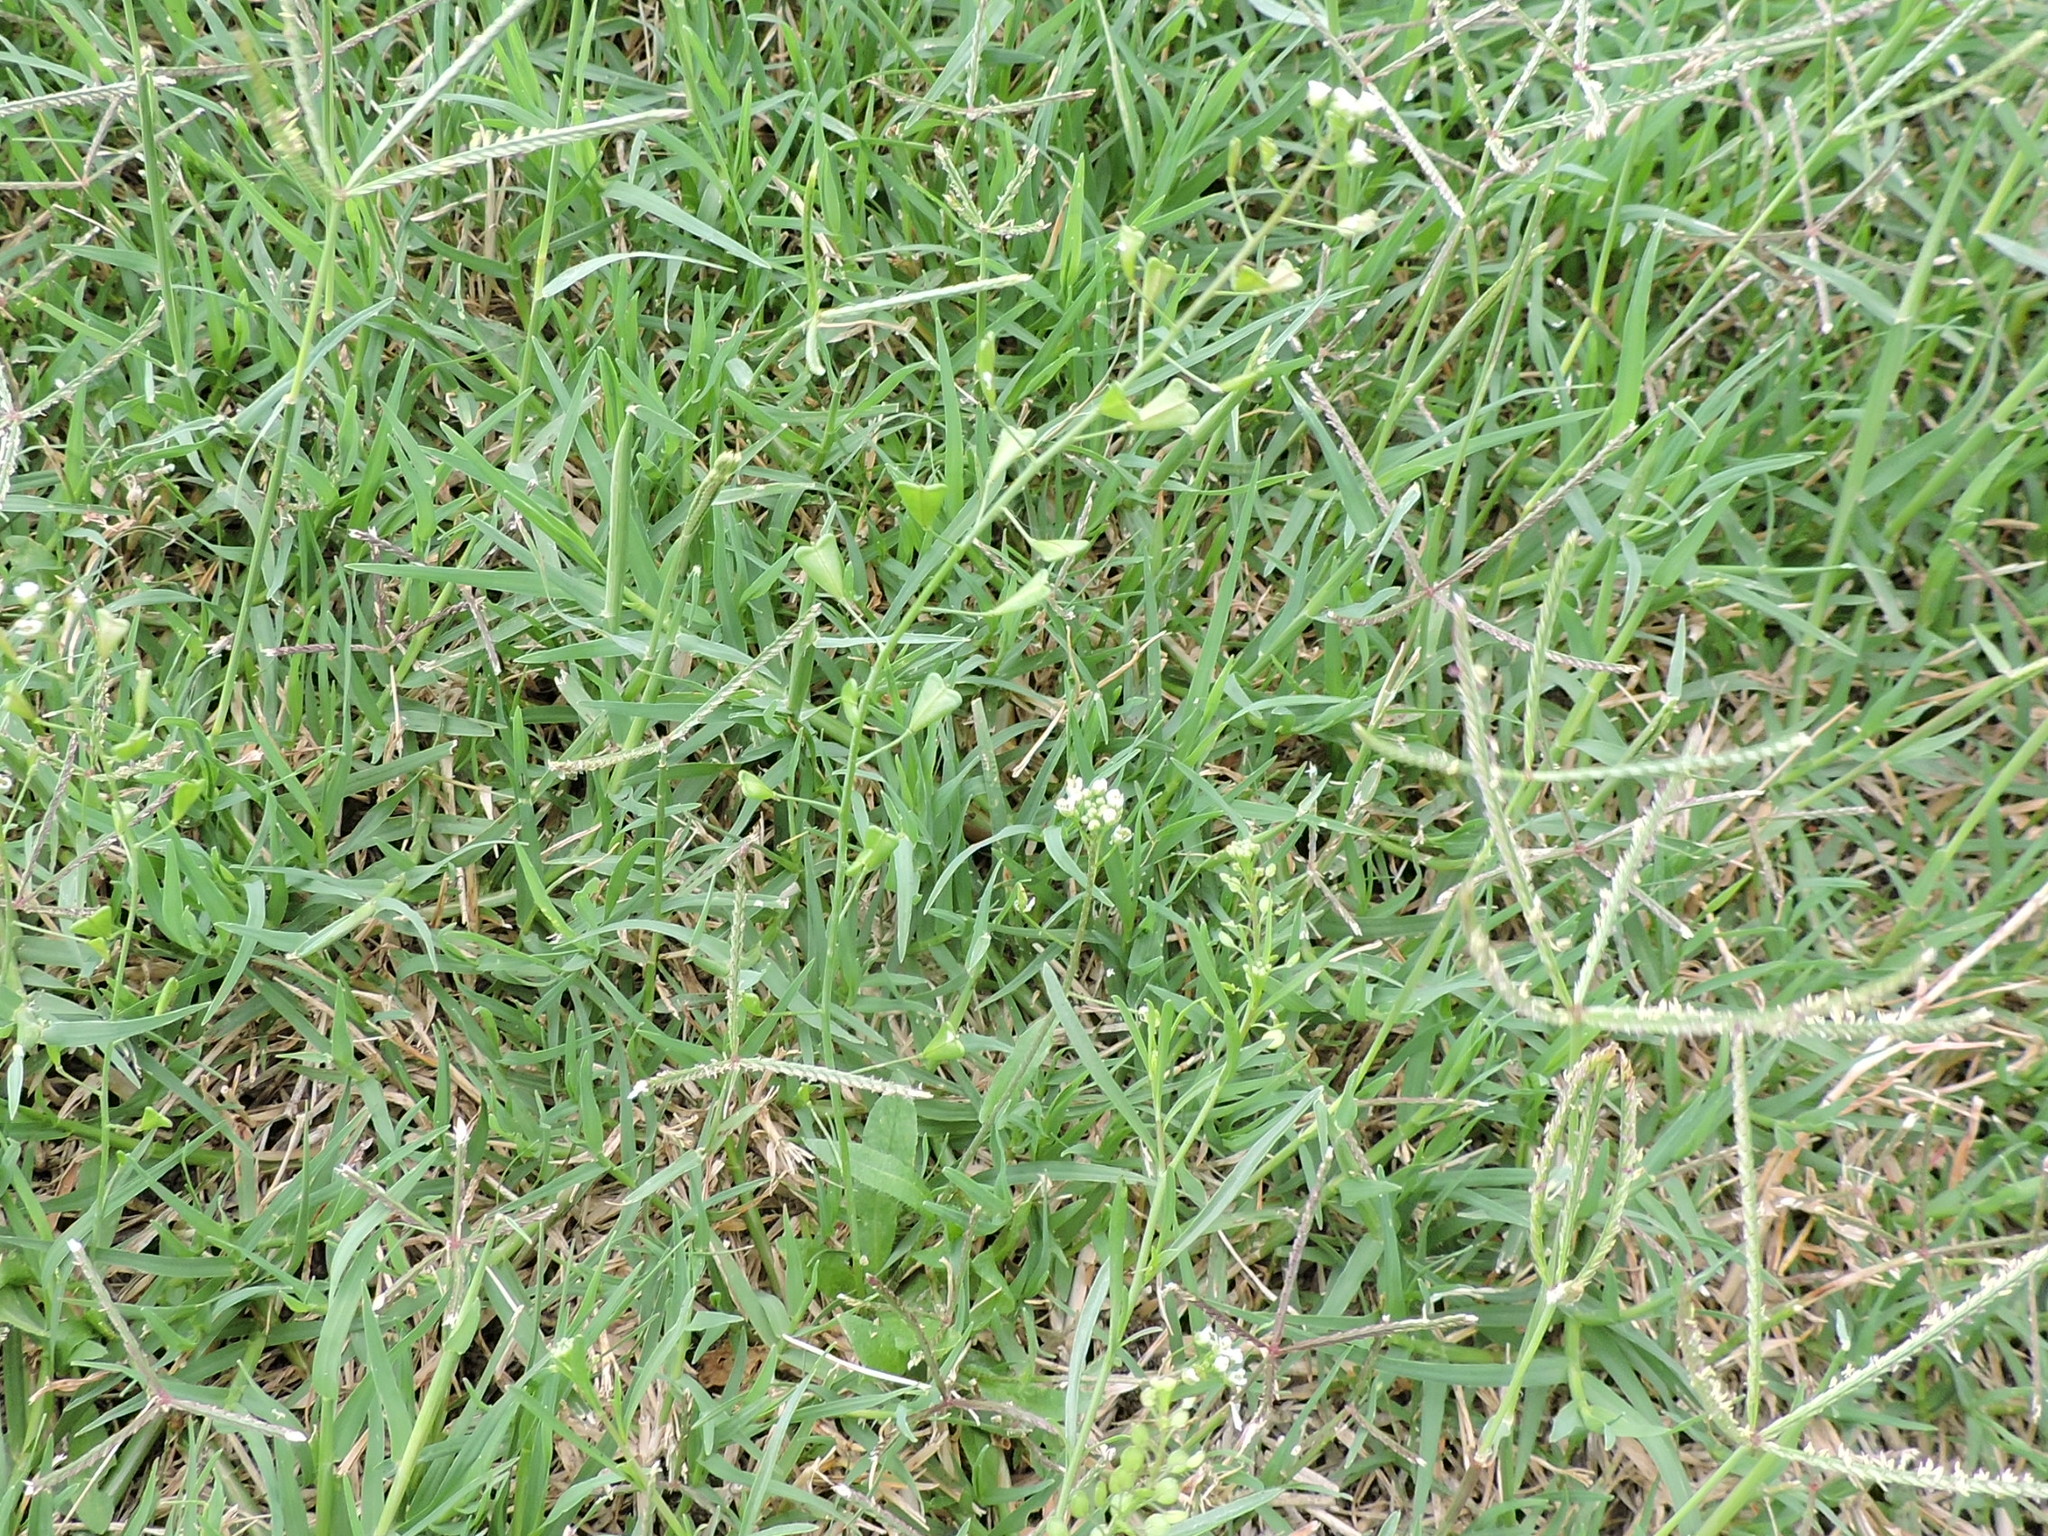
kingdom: Plantae
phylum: Tracheophyta
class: Magnoliopsida
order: Brassicales
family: Brassicaceae
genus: Capsella
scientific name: Capsella bursa-pastoris
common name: Shepherd's purse
